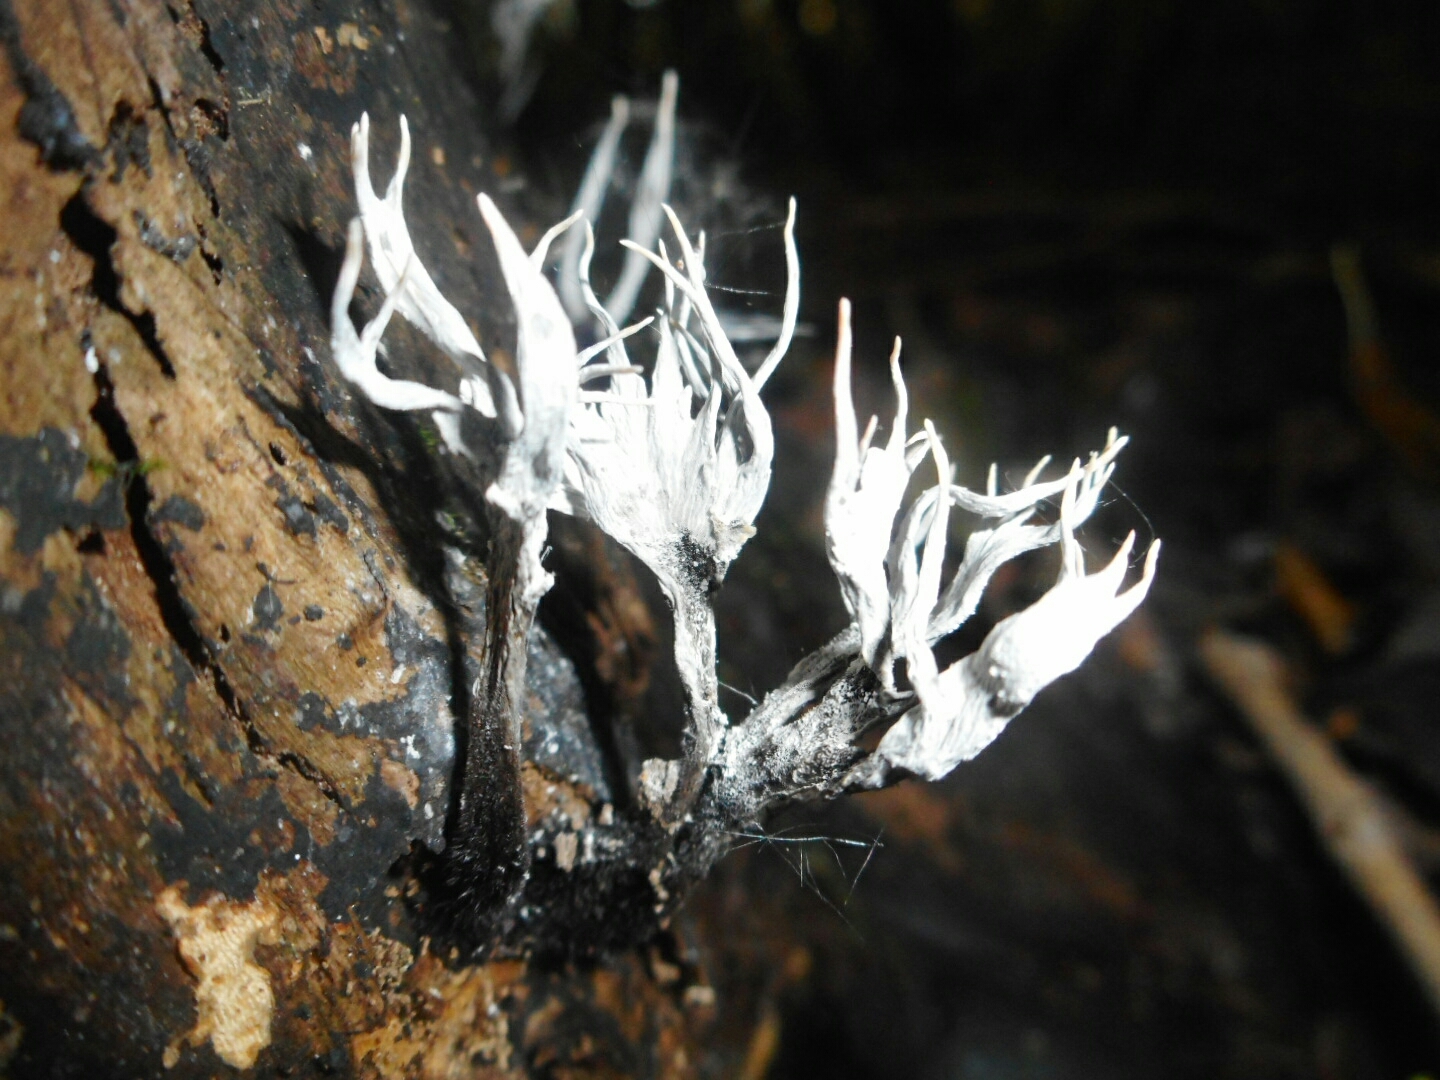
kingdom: Fungi
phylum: Ascomycota
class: Sordariomycetes
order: Xylariales
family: Xylariaceae
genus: Xylaria
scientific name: Xylaria hypoxylon
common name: Candle-snuff fungus
